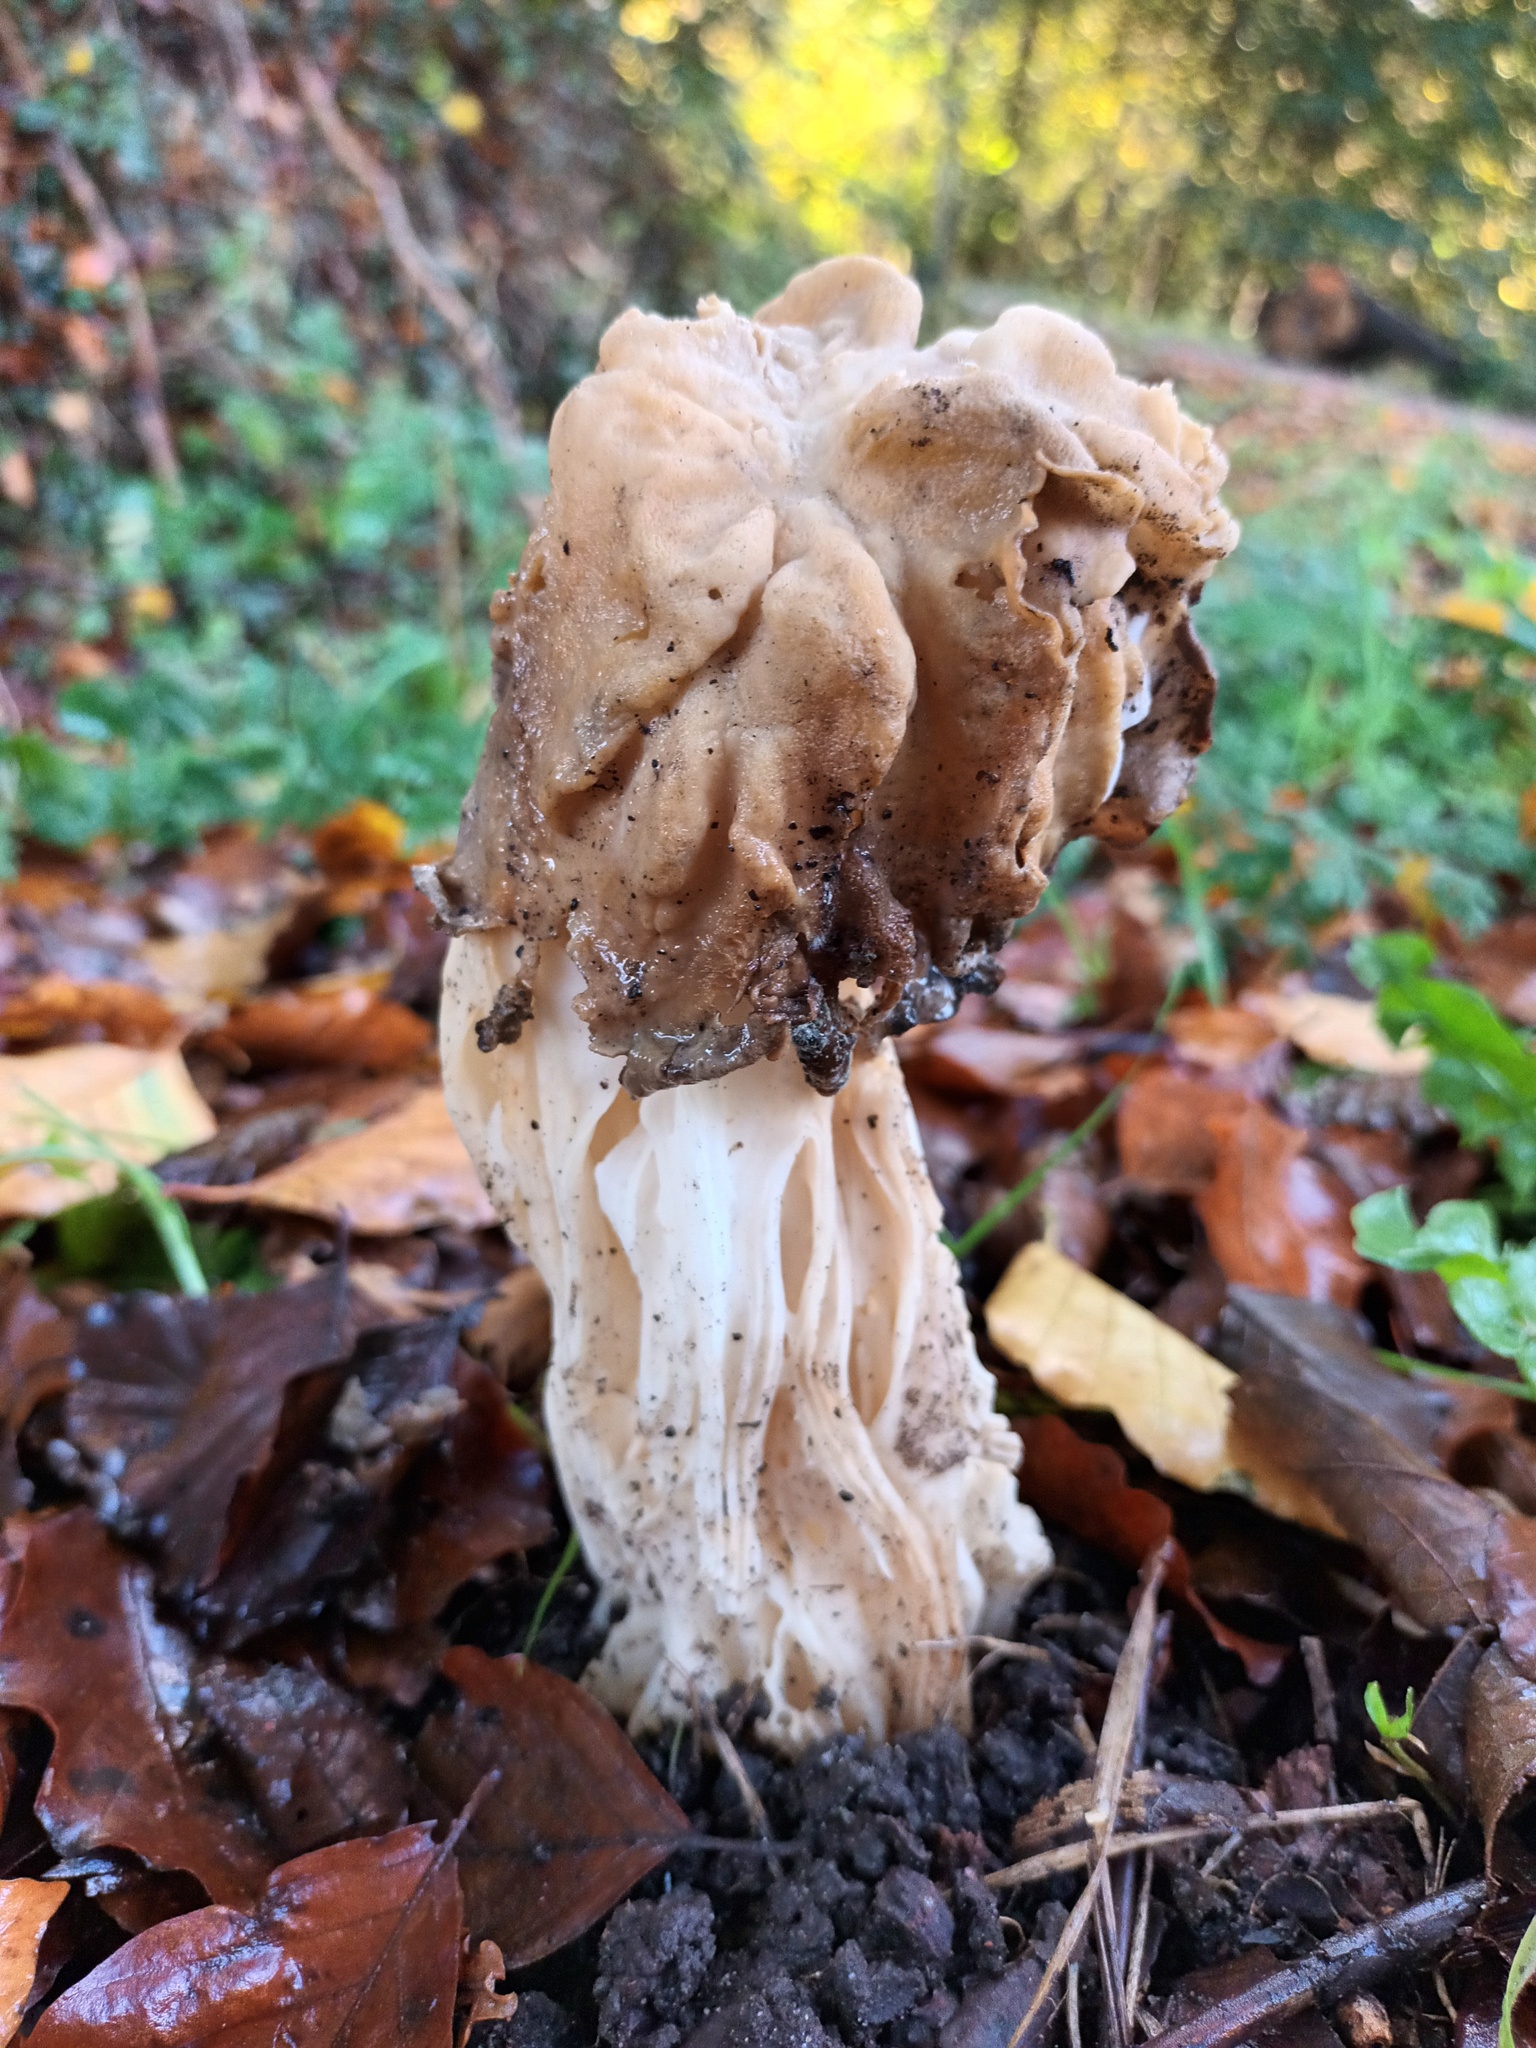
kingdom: Fungi
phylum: Ascomycota
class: Pezizomycetes
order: Pezizales
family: Helvellaceae
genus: Helvella
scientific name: Helvella crispa
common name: White saddle
